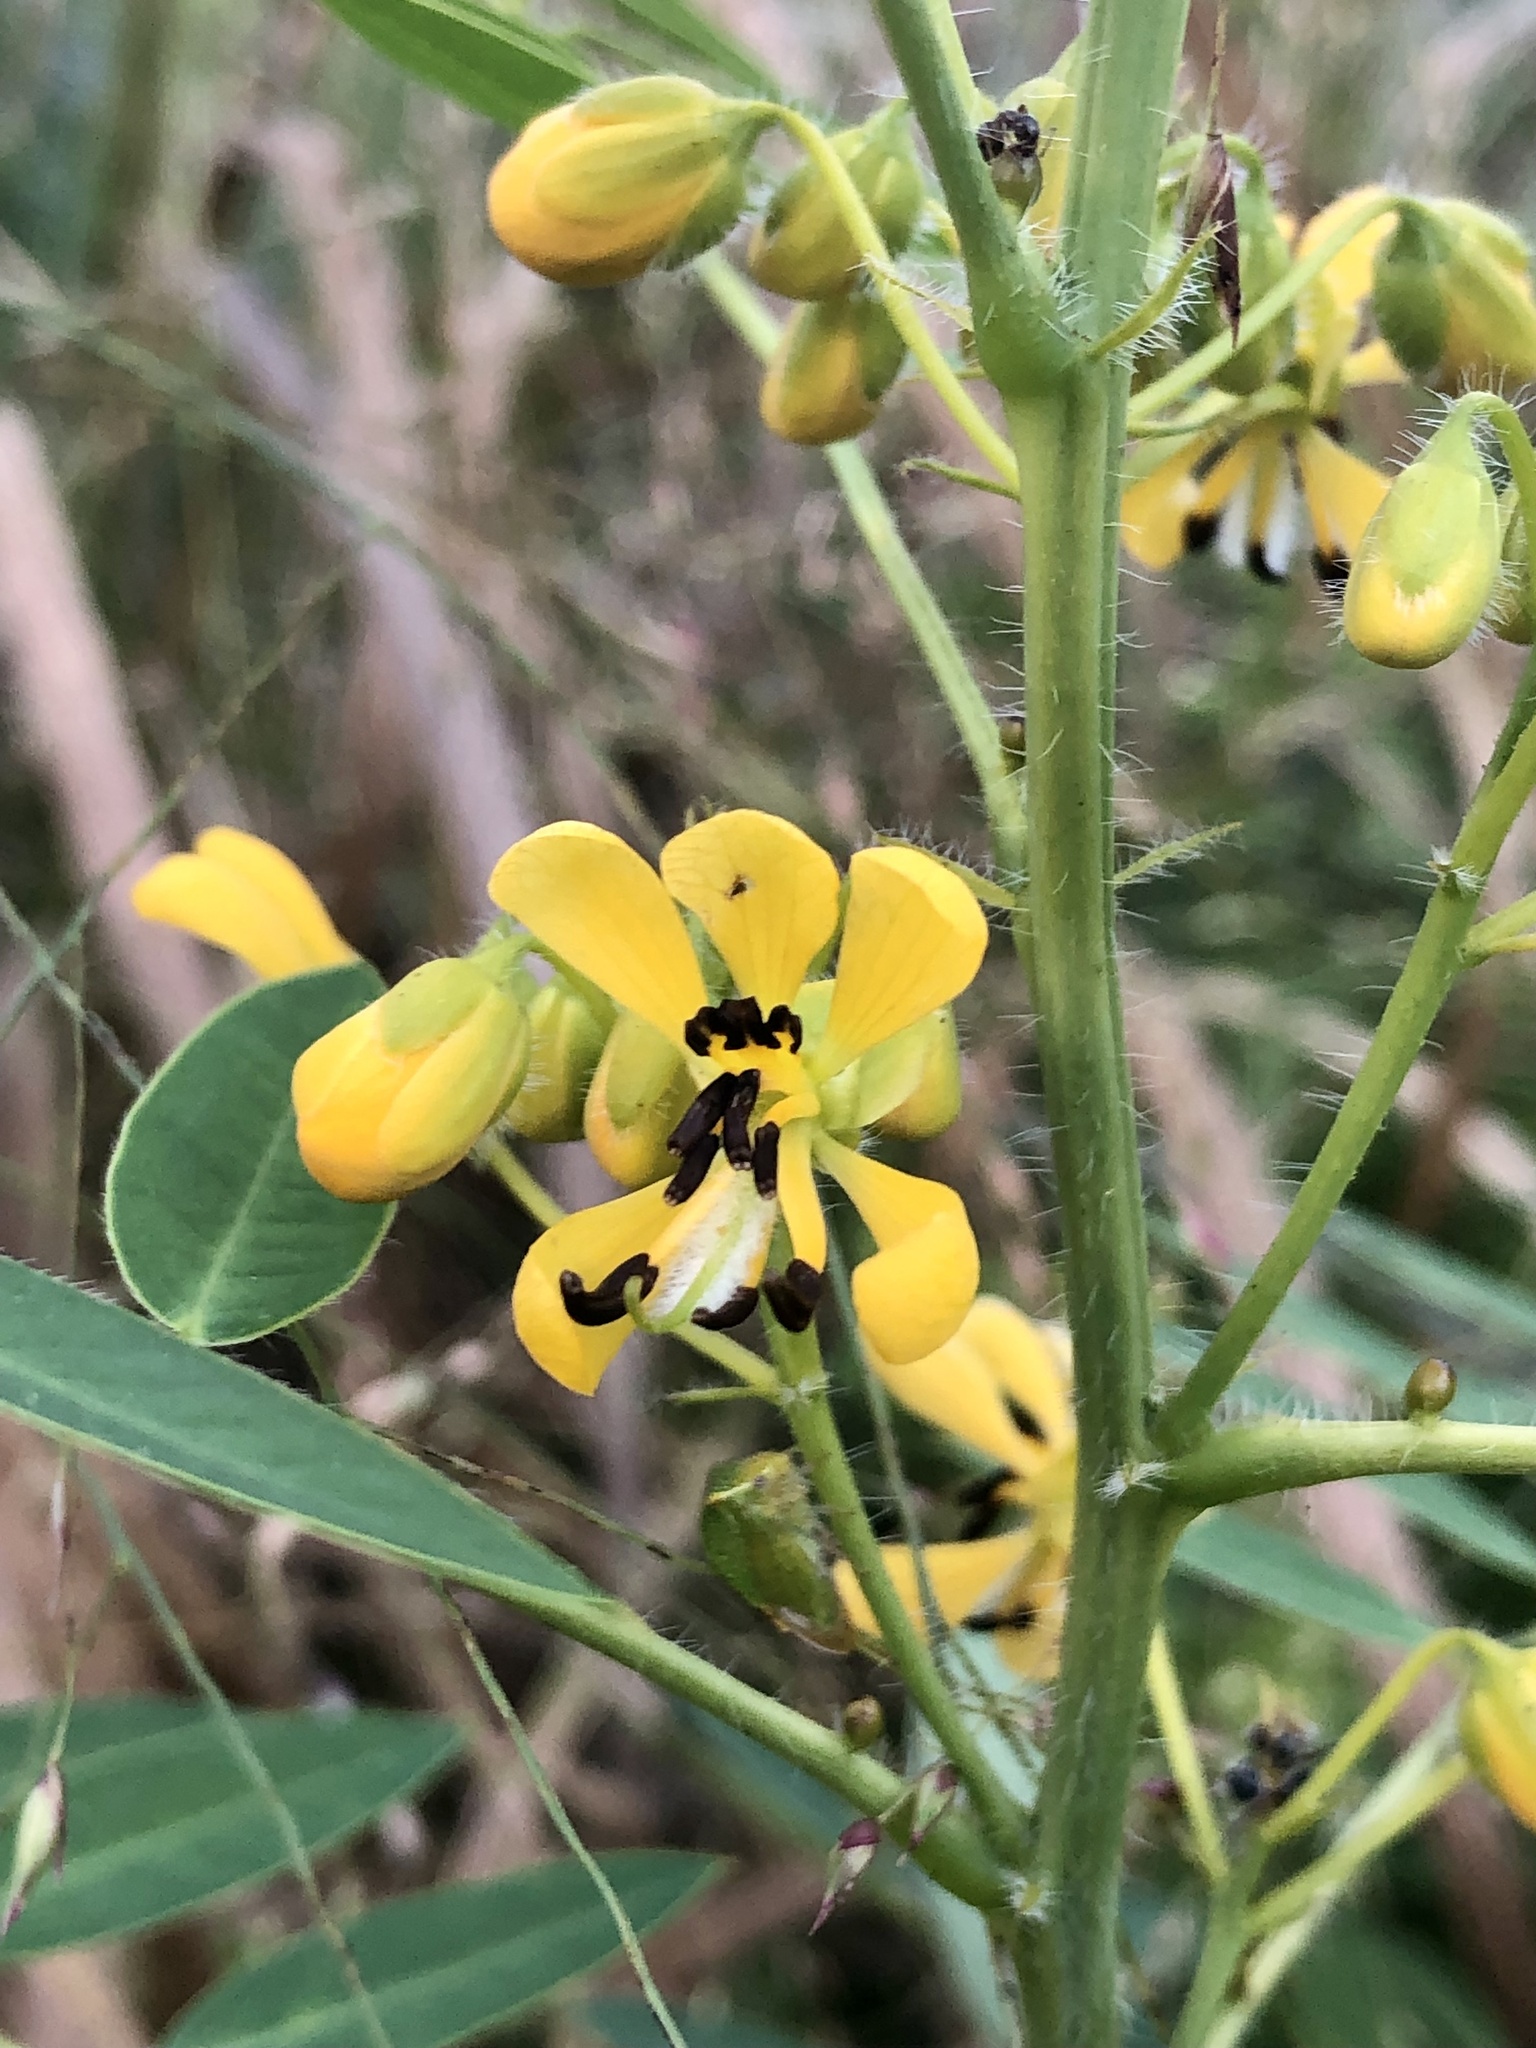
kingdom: Plantae
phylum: Tracheophyta
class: Magnoliopsida
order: Fabales
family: Fabaceae
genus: Senna
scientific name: Senna hebecarpa
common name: Wild senna
